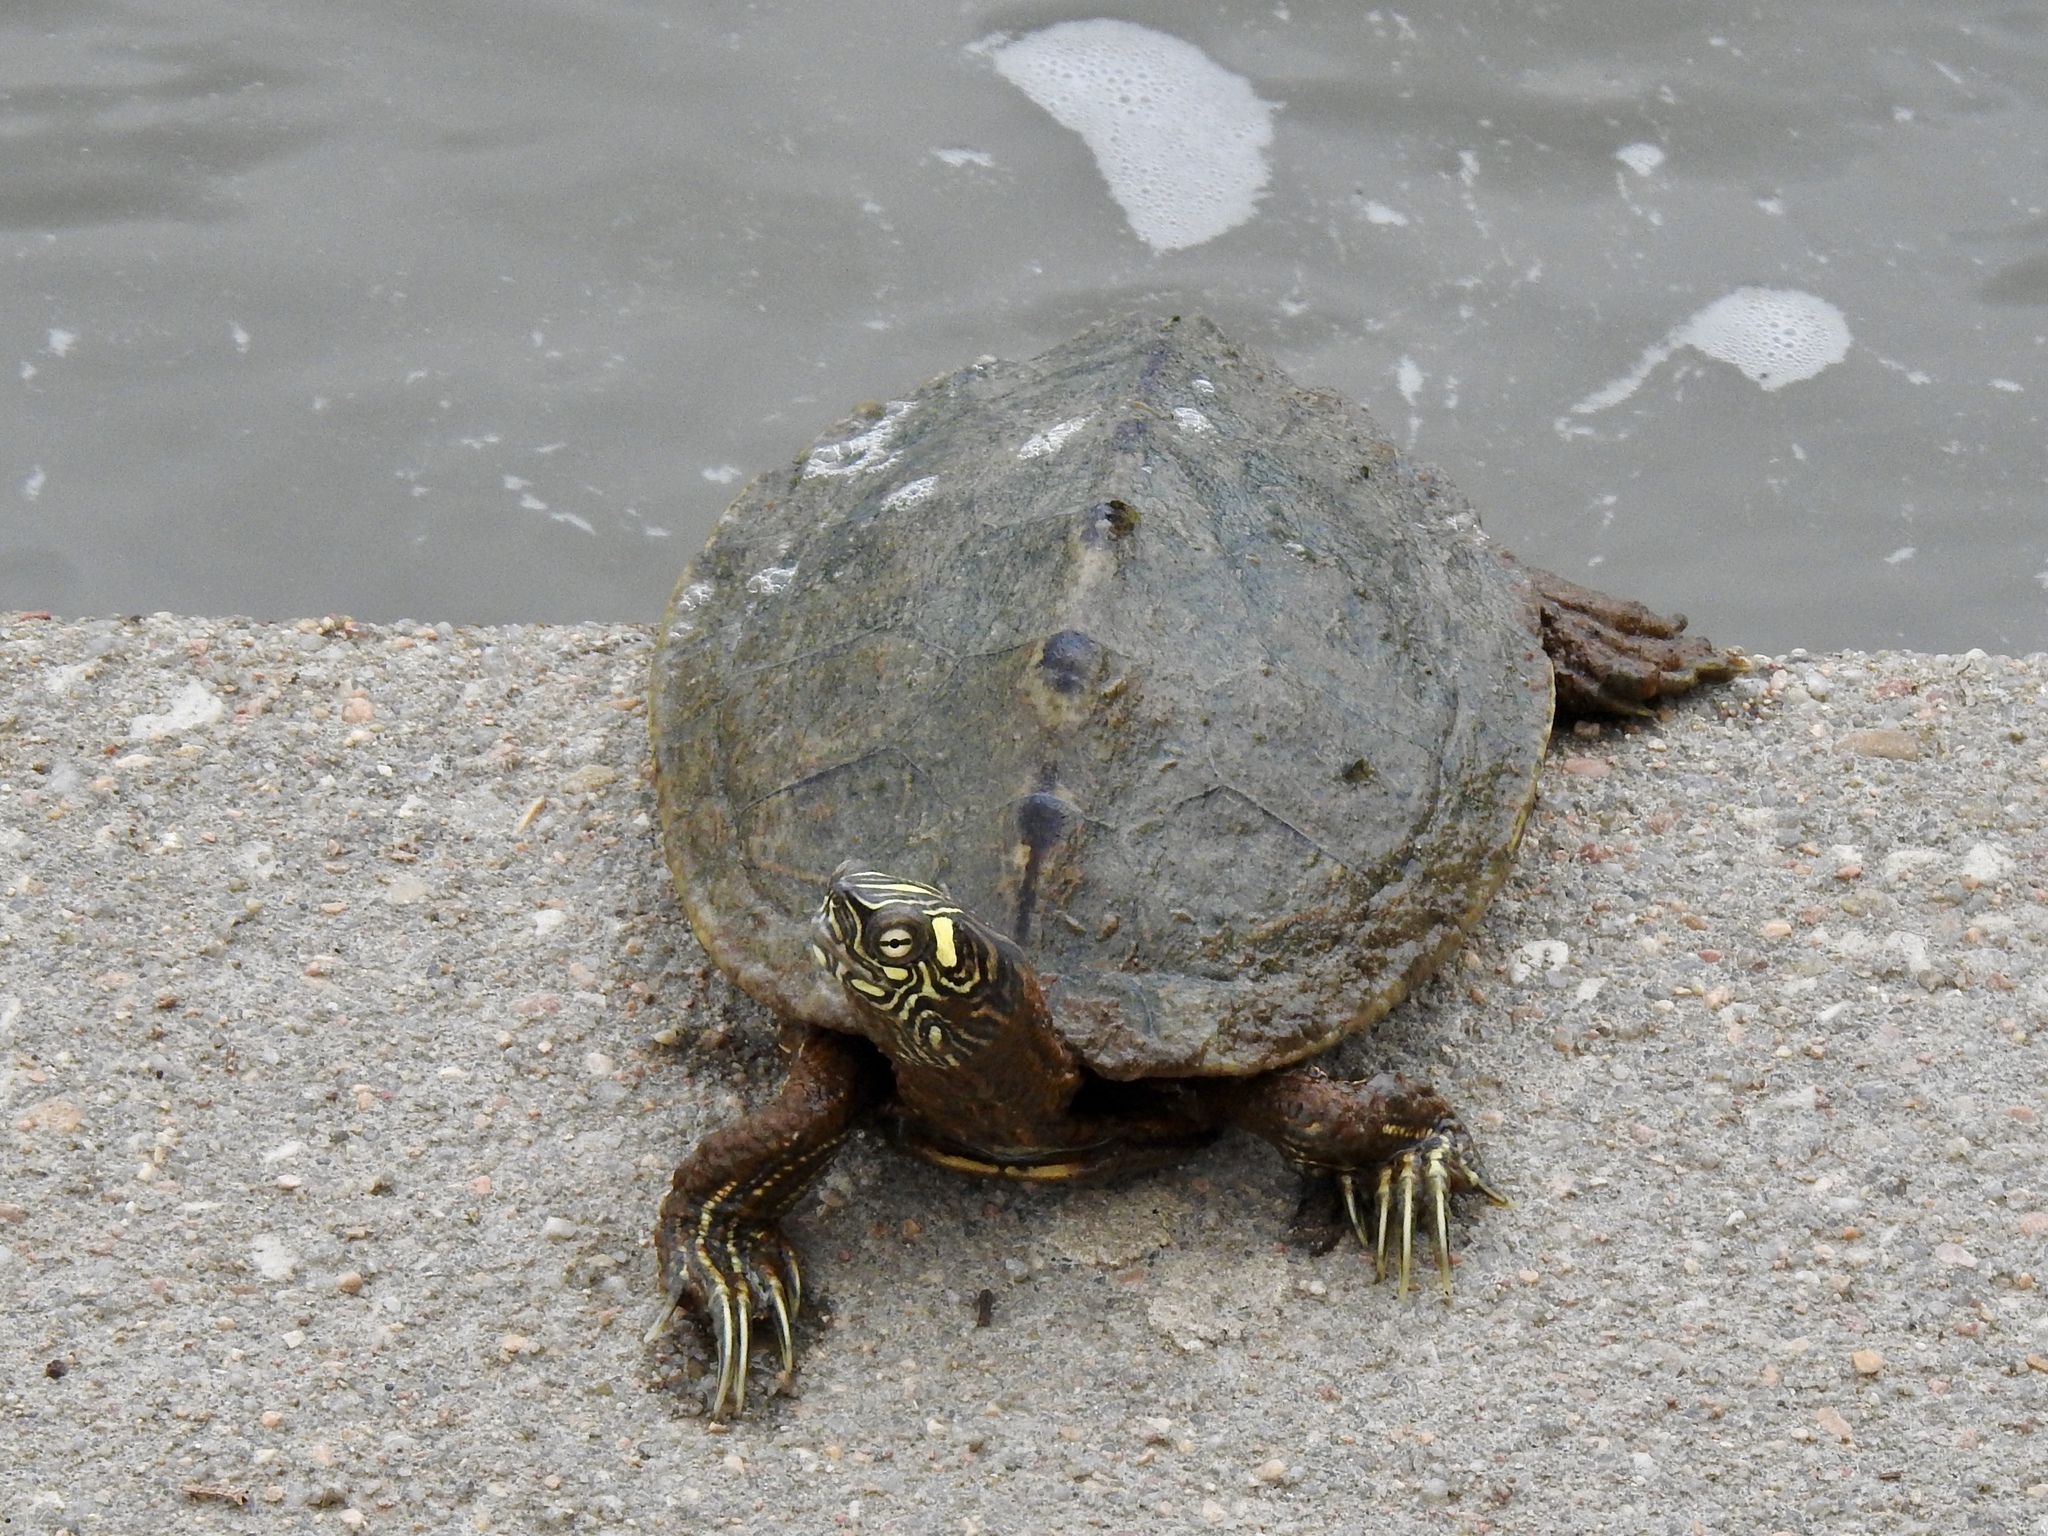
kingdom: Animalia
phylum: Chordata
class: Testudines
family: Emydidae
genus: Graptemys
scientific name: Graptemys ouachitensis
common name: Ouachita map turtle
